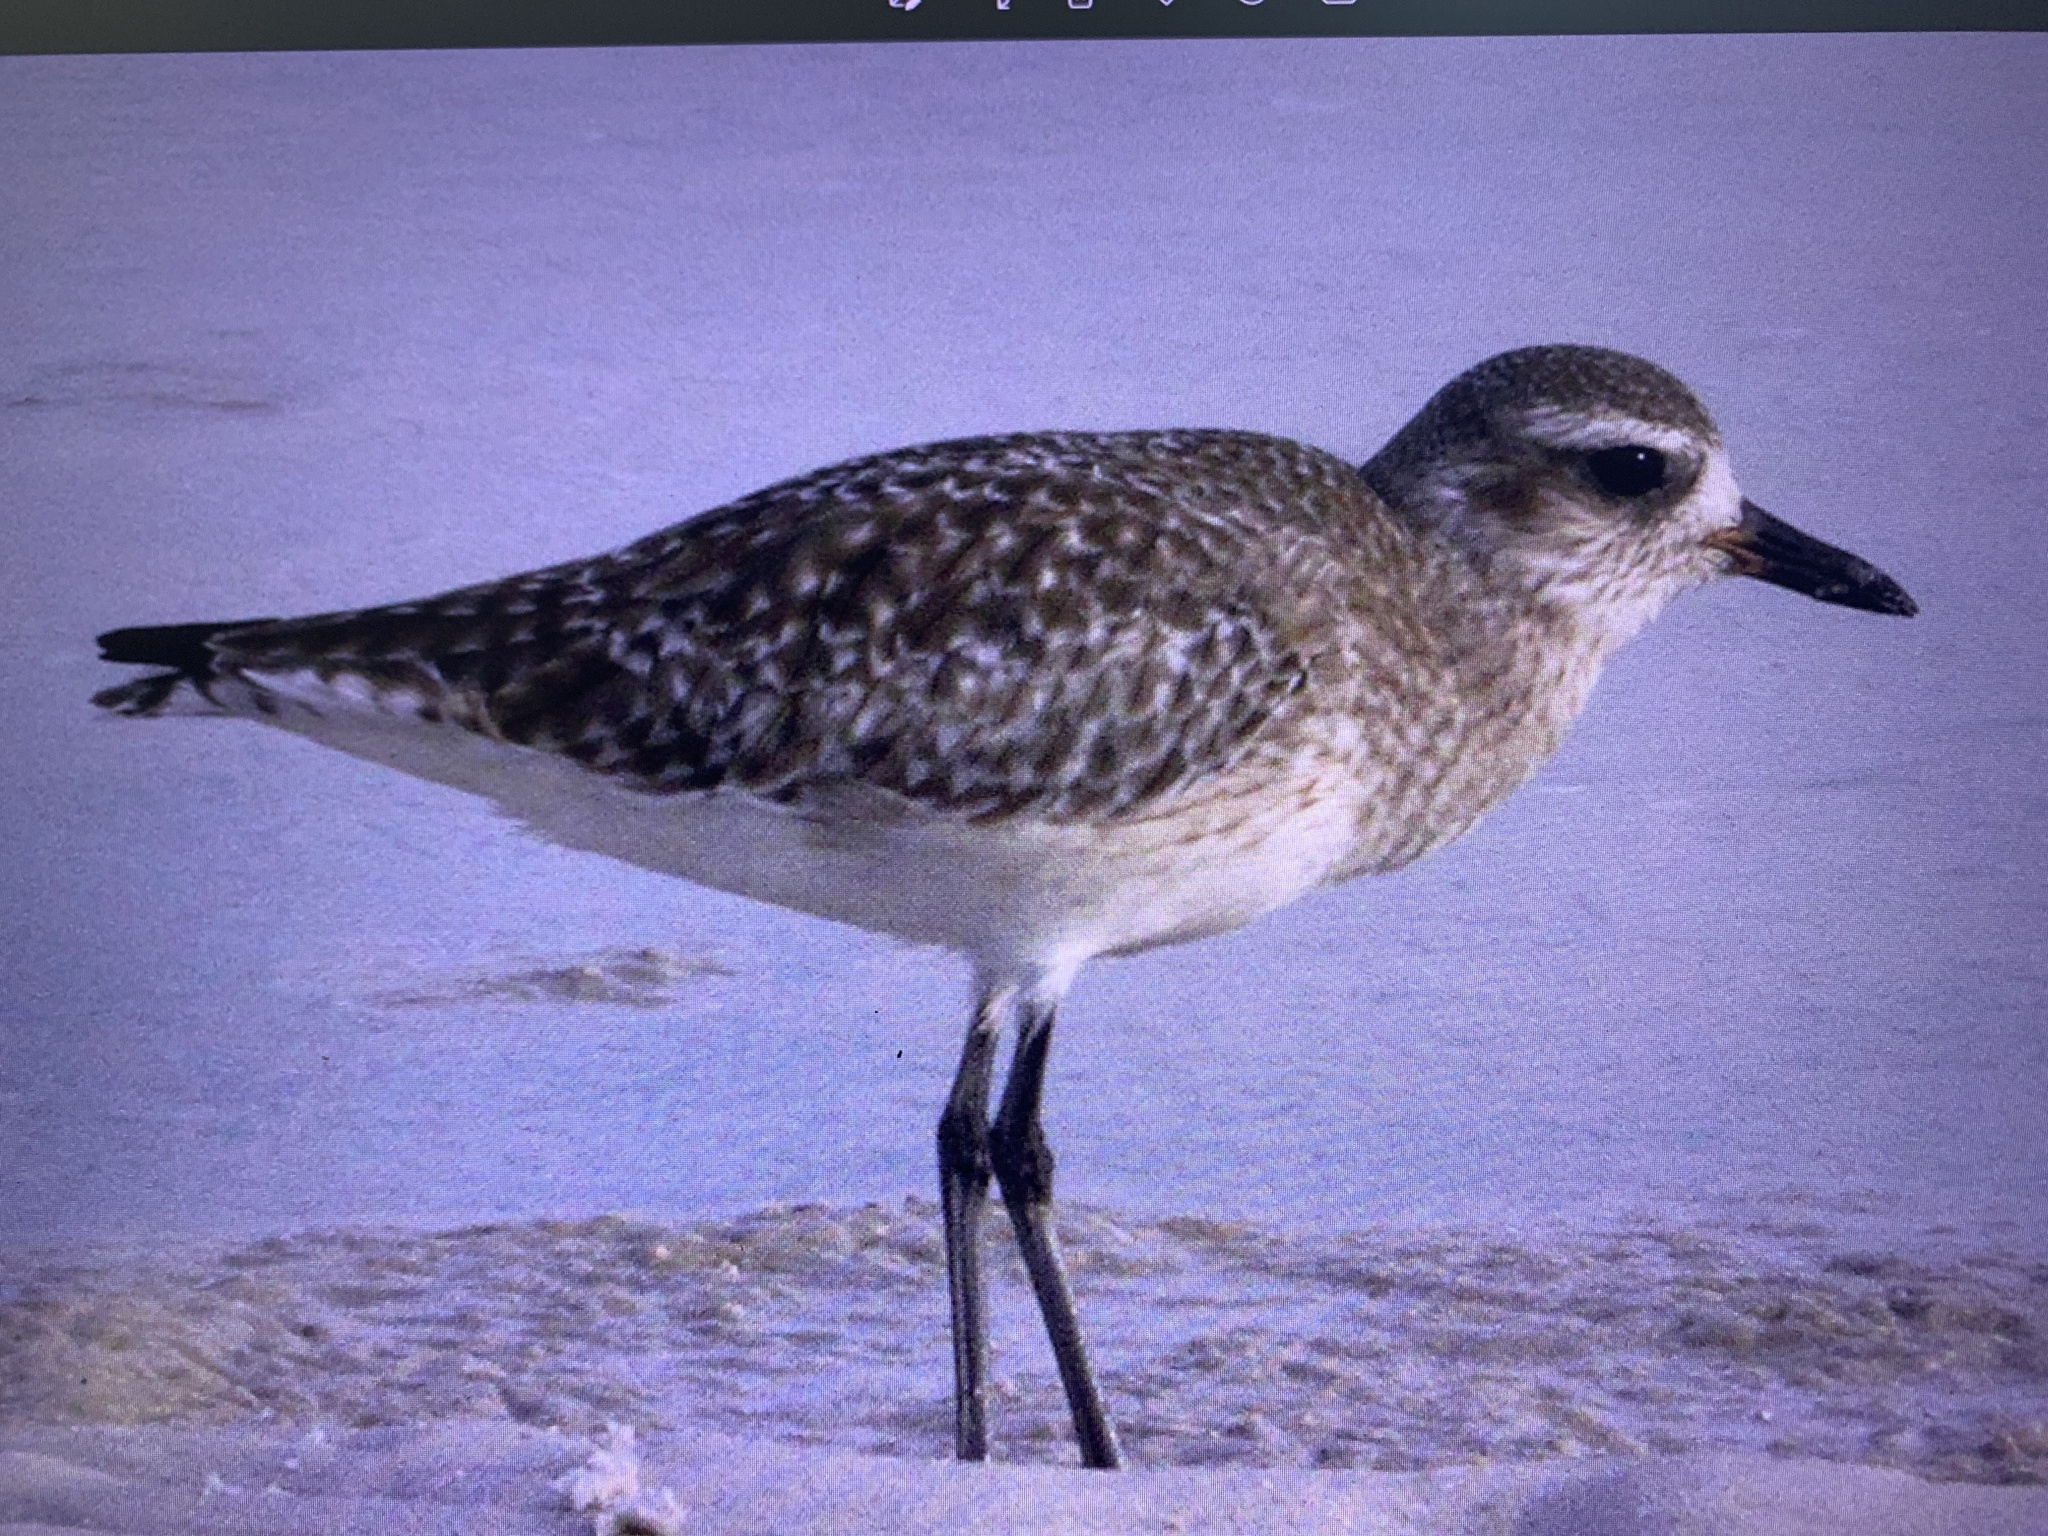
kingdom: Animalia
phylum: Chordata
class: Aves
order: Charadriiformes
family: Charadriidae
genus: Pluvialis
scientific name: Pluvialis squatarola
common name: Grey plover
